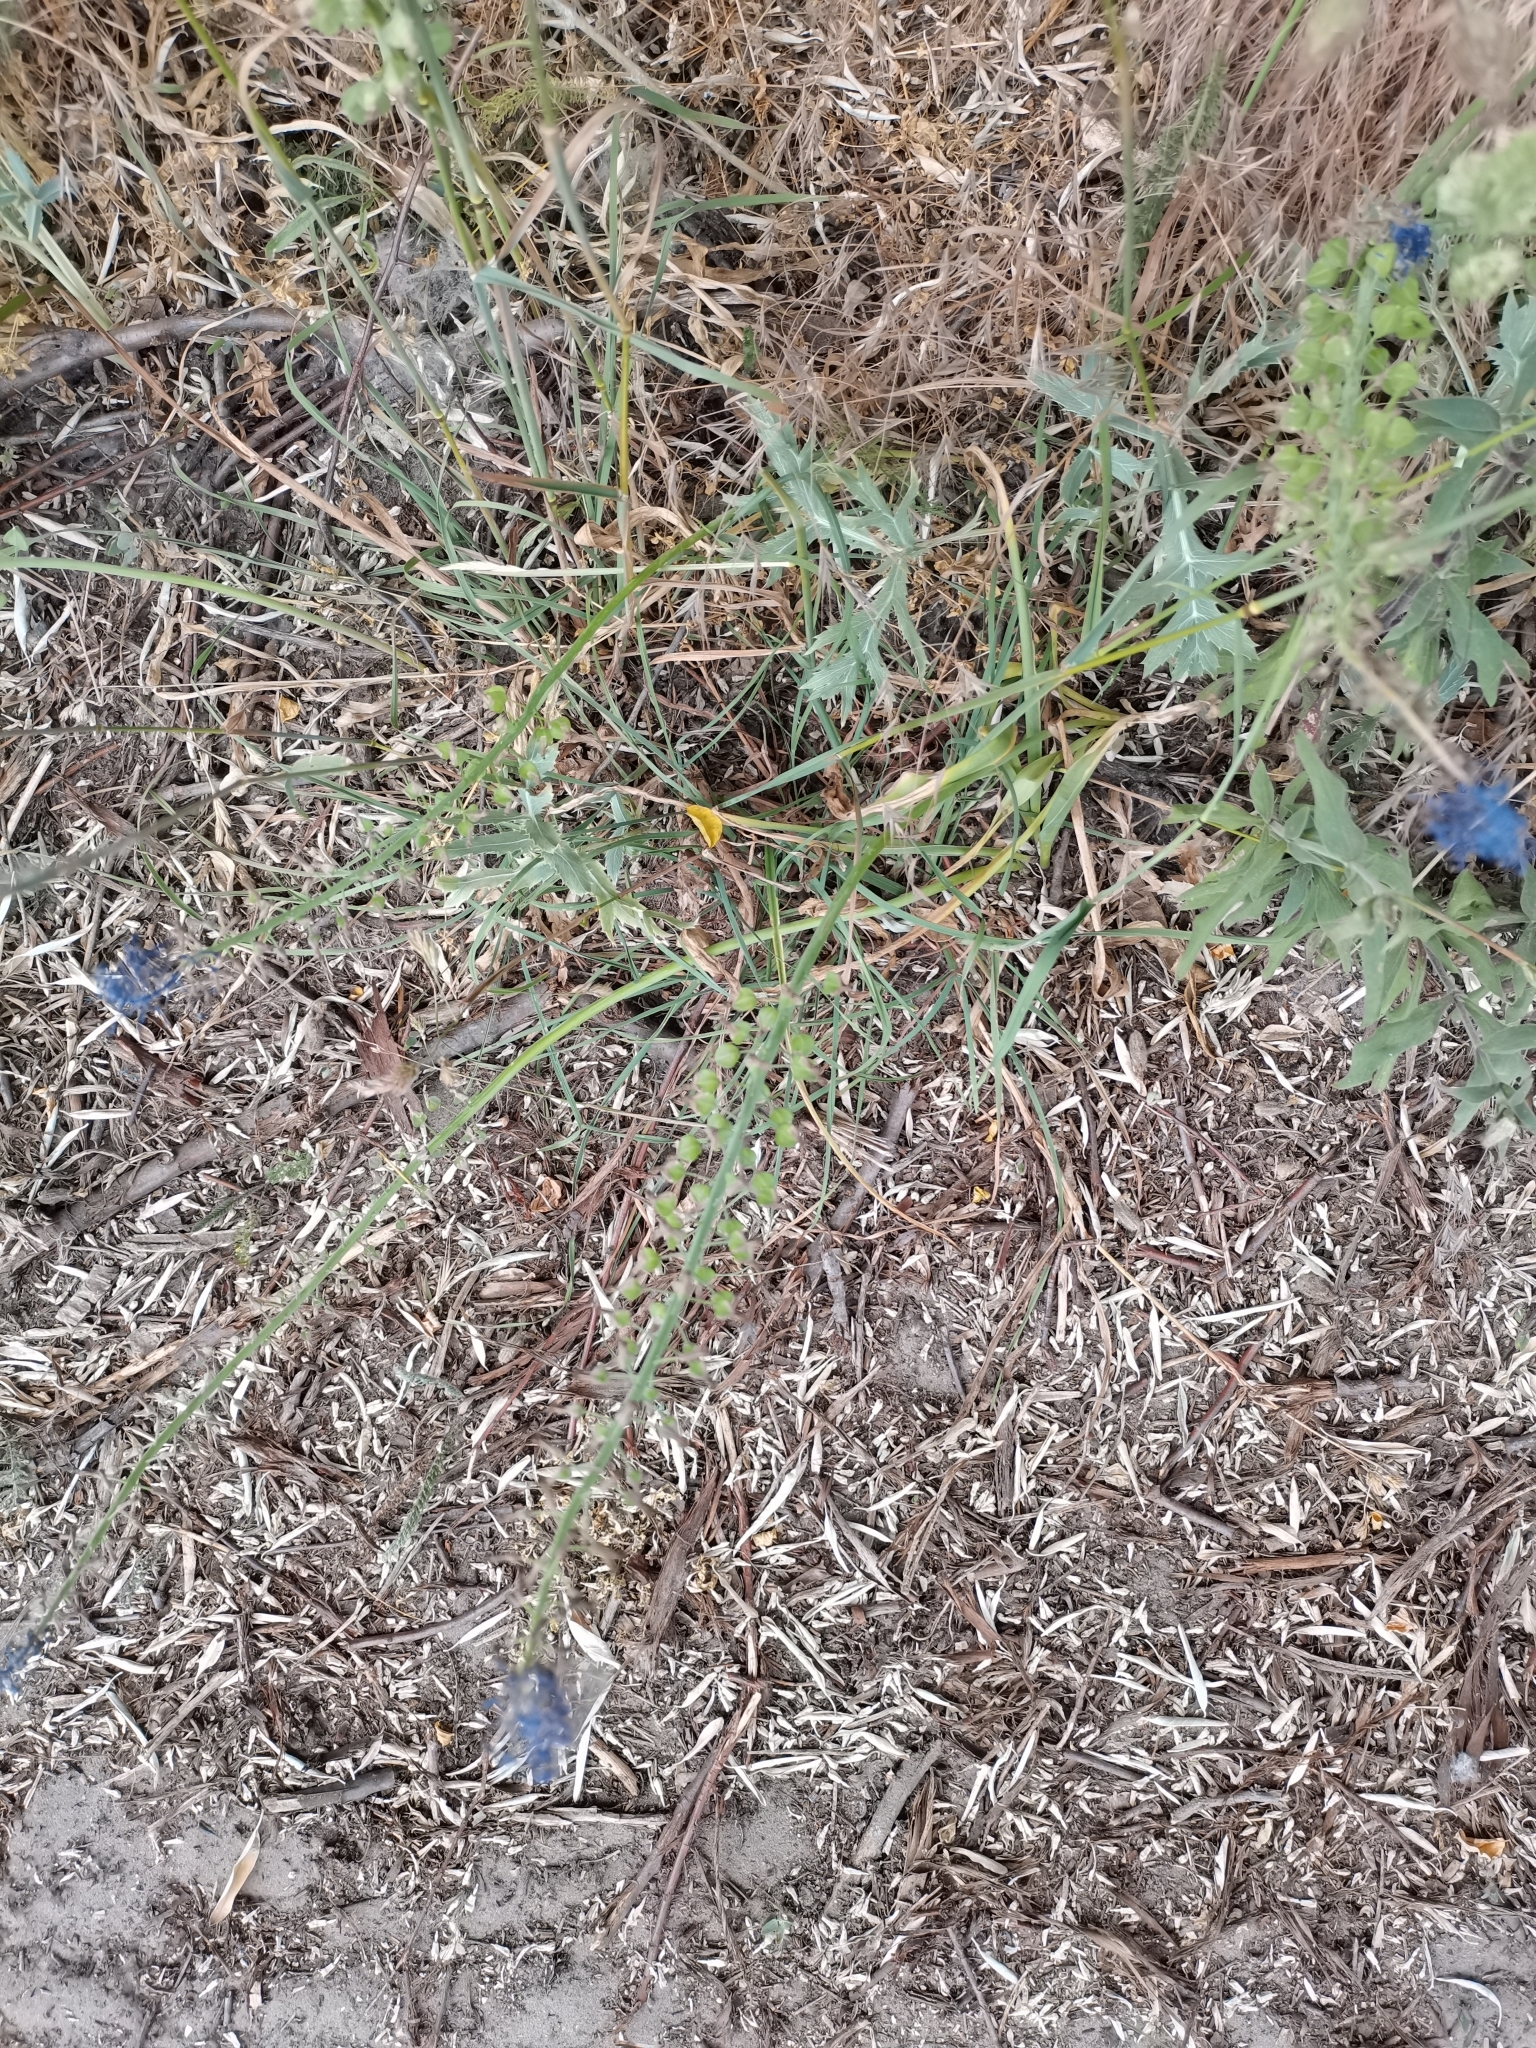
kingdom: Plantae
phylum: Tracheophyta
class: Liliopsida
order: Asparagales
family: Asparagaceae
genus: Muscari
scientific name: Muscari comosum
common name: Tassel hyacinth
